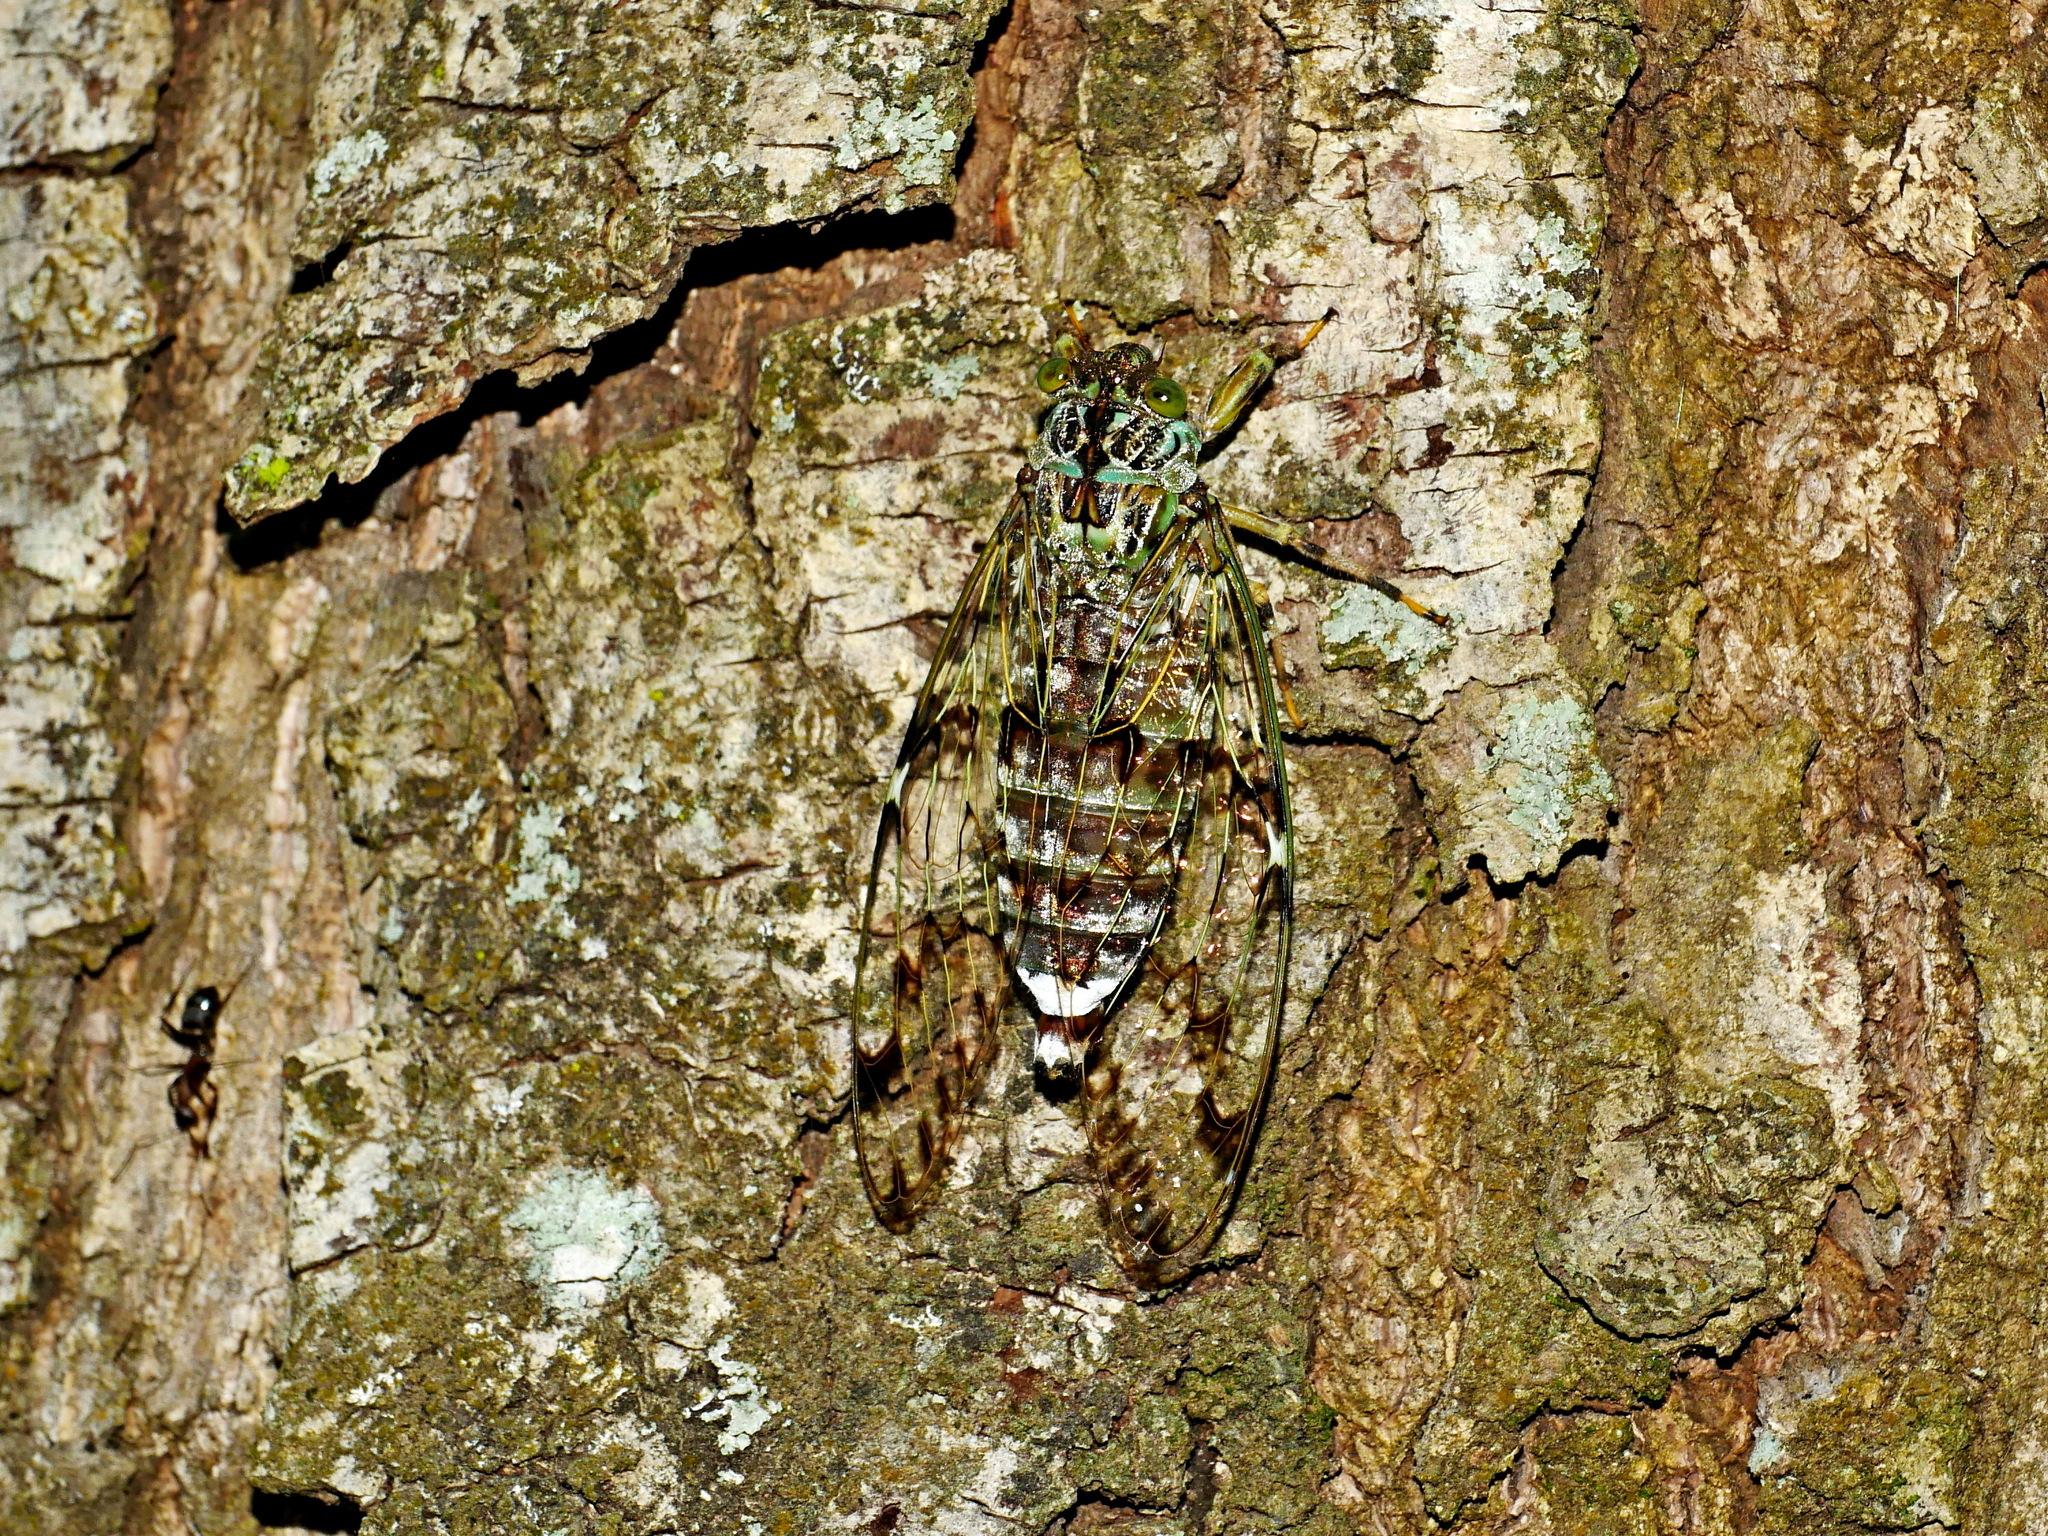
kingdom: Animalia
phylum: Arthropoda
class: Insecta
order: Hemiptera
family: Cicadidae
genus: Semia
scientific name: Semia watanabei
